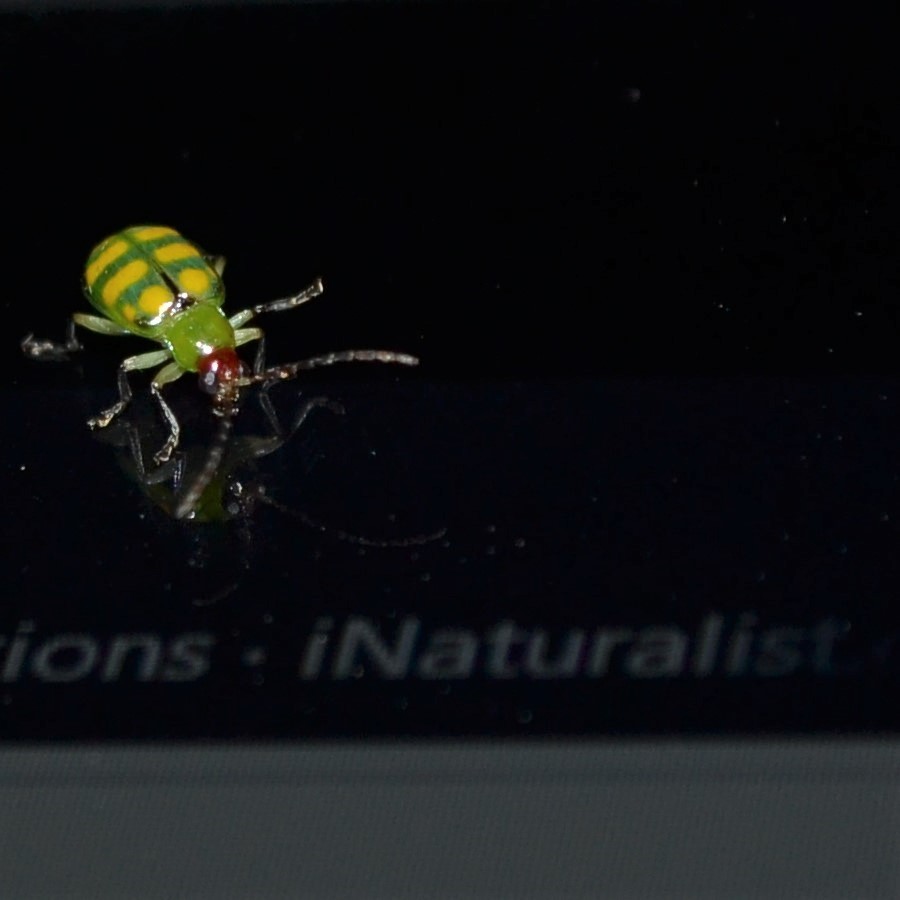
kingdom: Animalia
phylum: Arthropoda
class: Insecta
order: Coleoptera
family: Chrysomelidae
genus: Diabrotica
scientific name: Diabrotica balteata
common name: Leaf beetle
